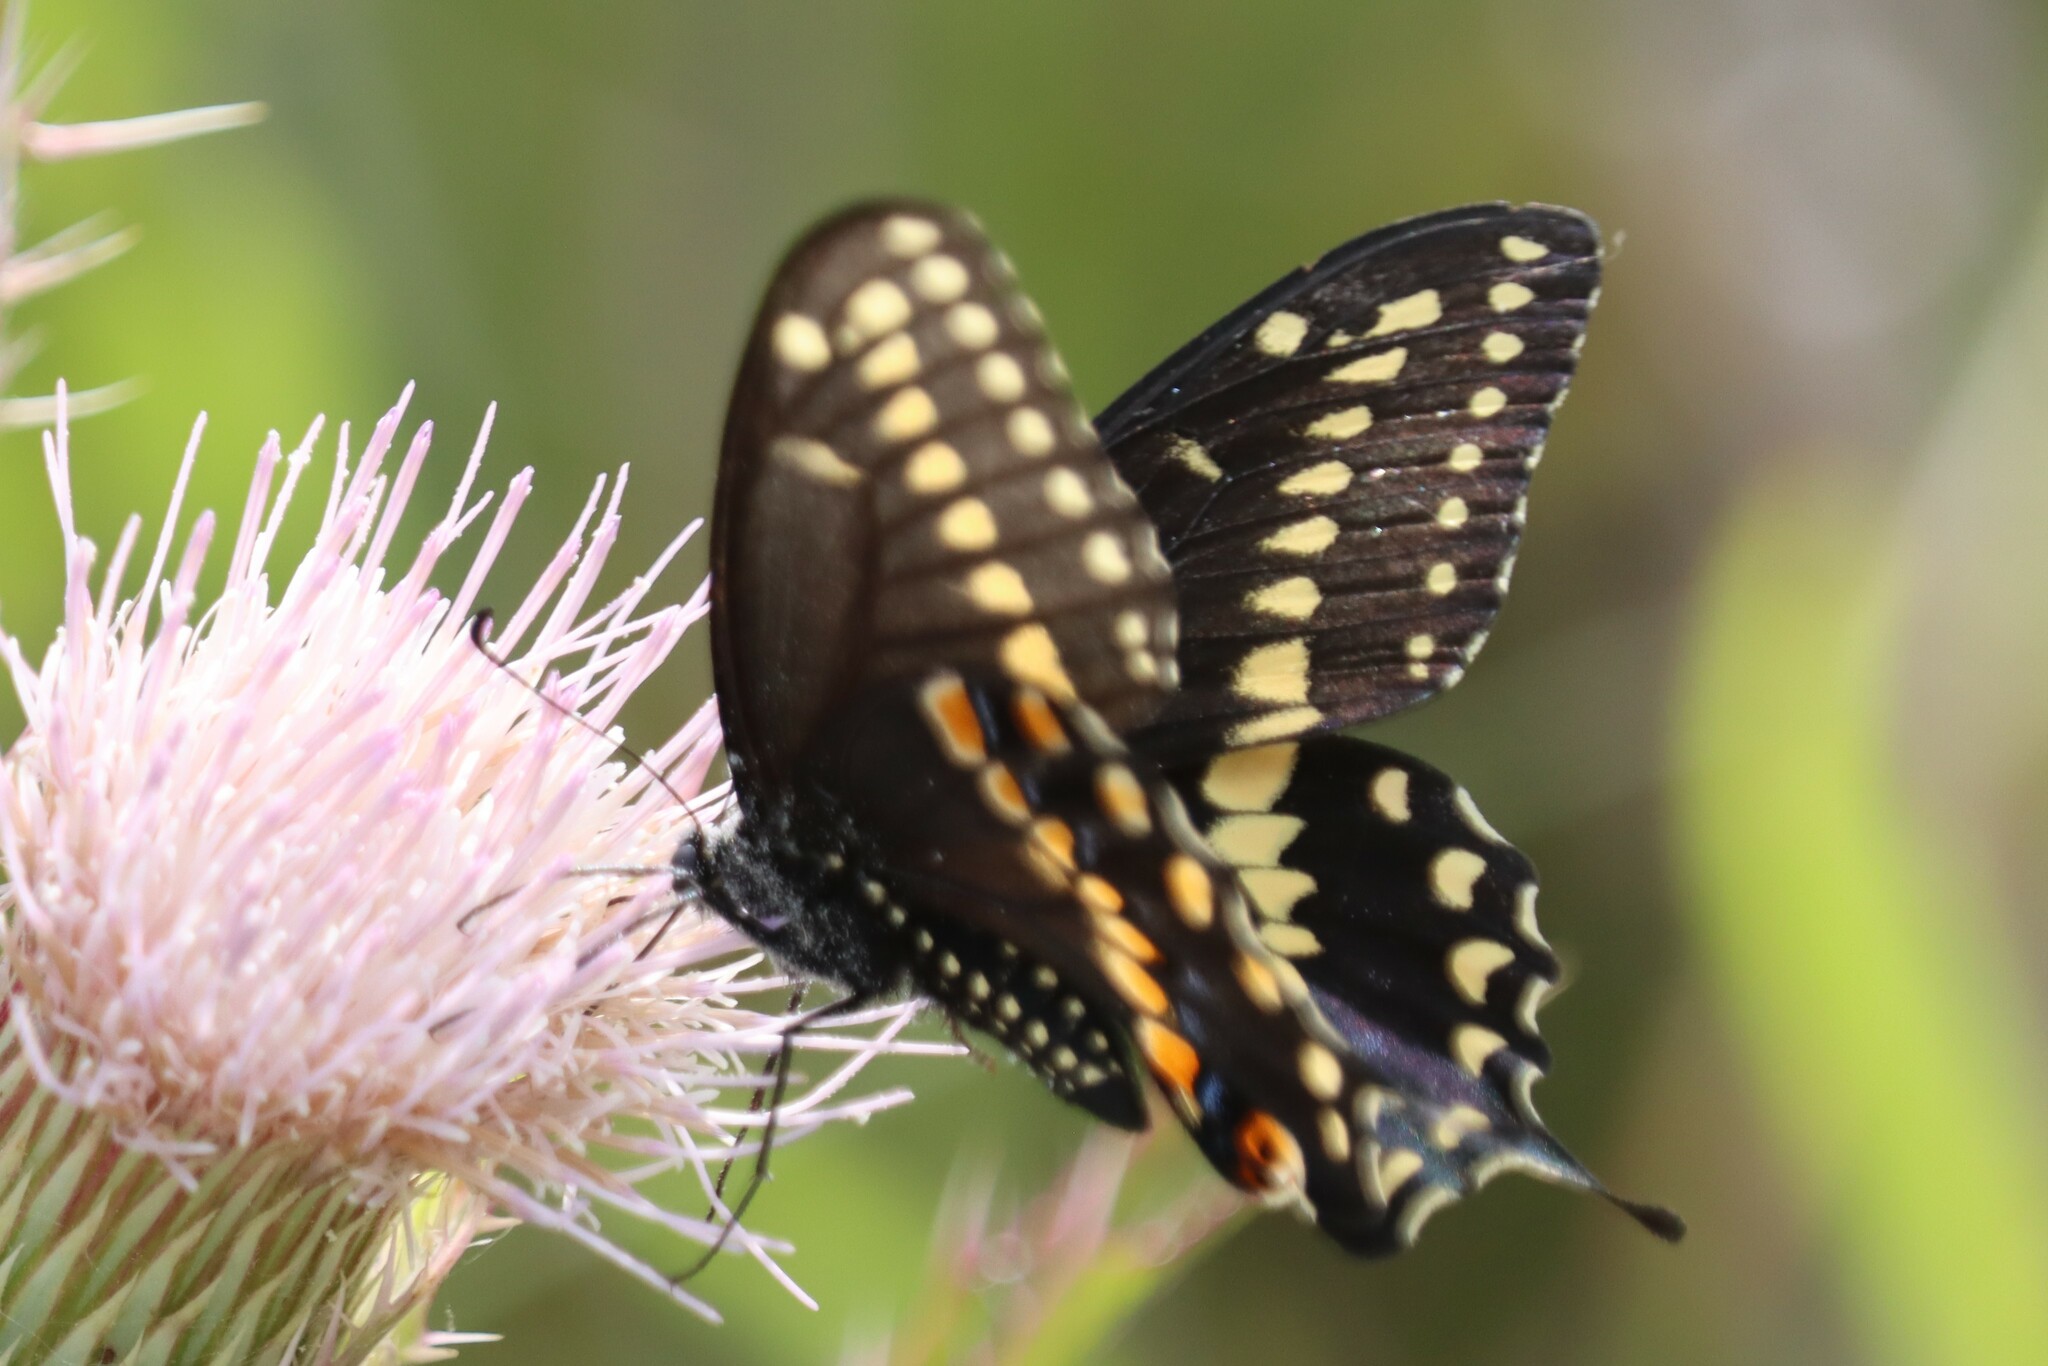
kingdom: Animalia
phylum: Arthropoda
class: Insecta
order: Lepidoptera
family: Papilionidae
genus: Papilio
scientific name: Papilio polyxenes
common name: Black swallowtail
